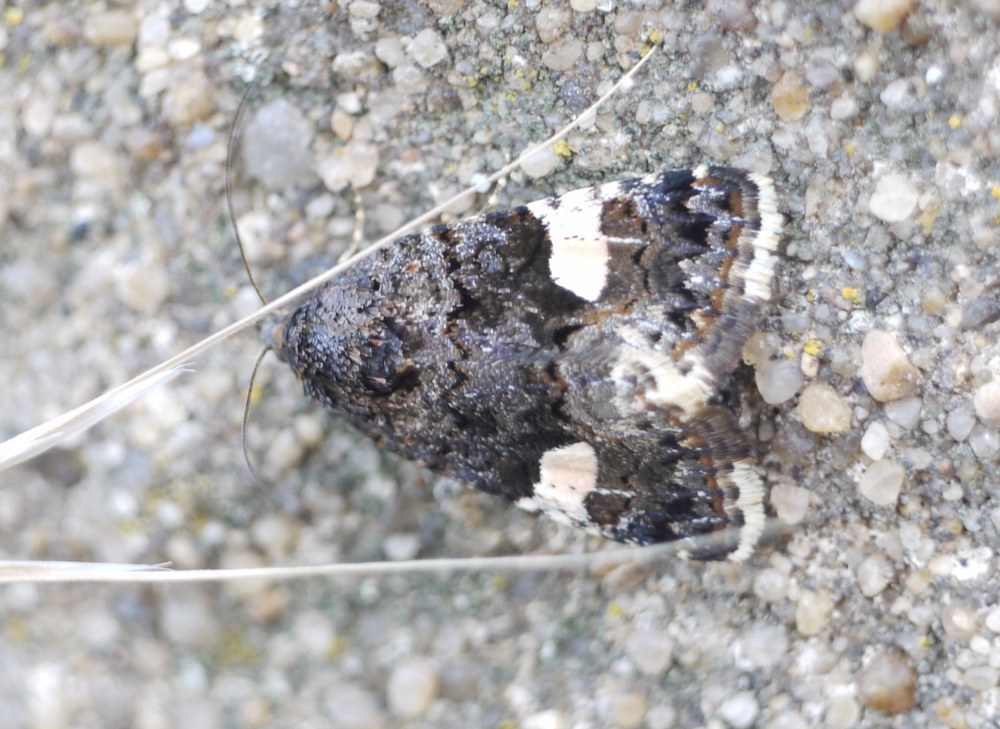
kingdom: Animalia
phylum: Arthropoda
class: Insecta
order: Lepidoptera
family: Erebidae
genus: Tyta
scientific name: Tyta luctuosa
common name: Four-spotted
